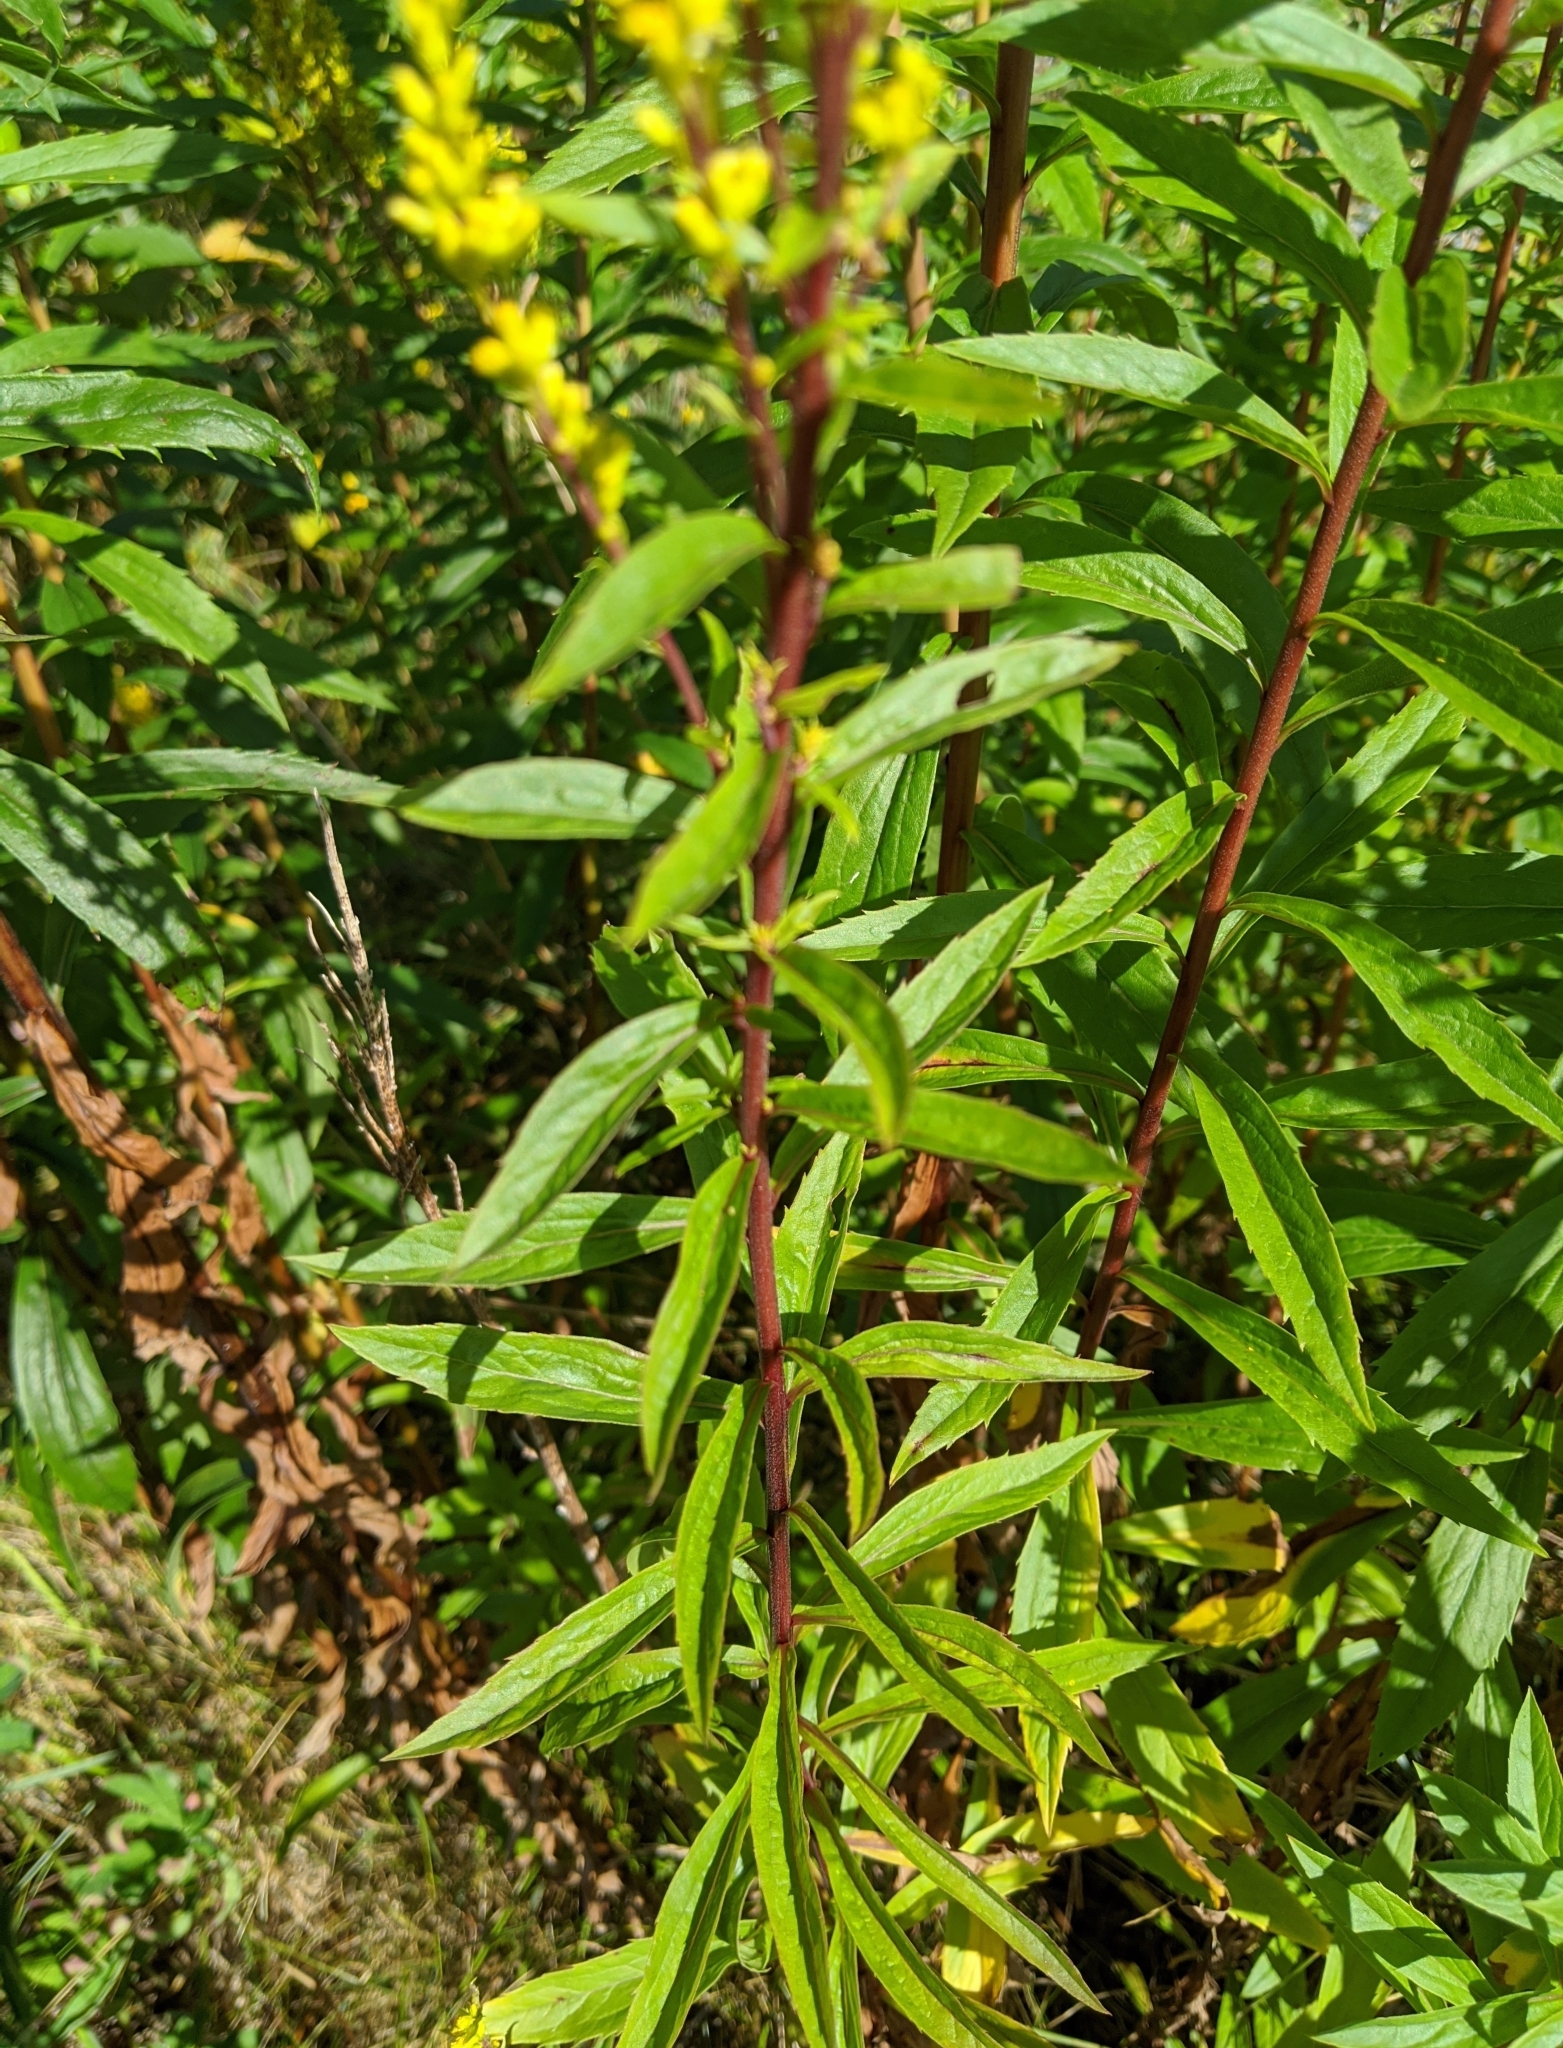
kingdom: Plantae
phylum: Tracheophyta
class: Magnoliopsida
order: Asterales
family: Asteraceae
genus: Solidago
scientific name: Solidago canadensis
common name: Canada goldenrod
